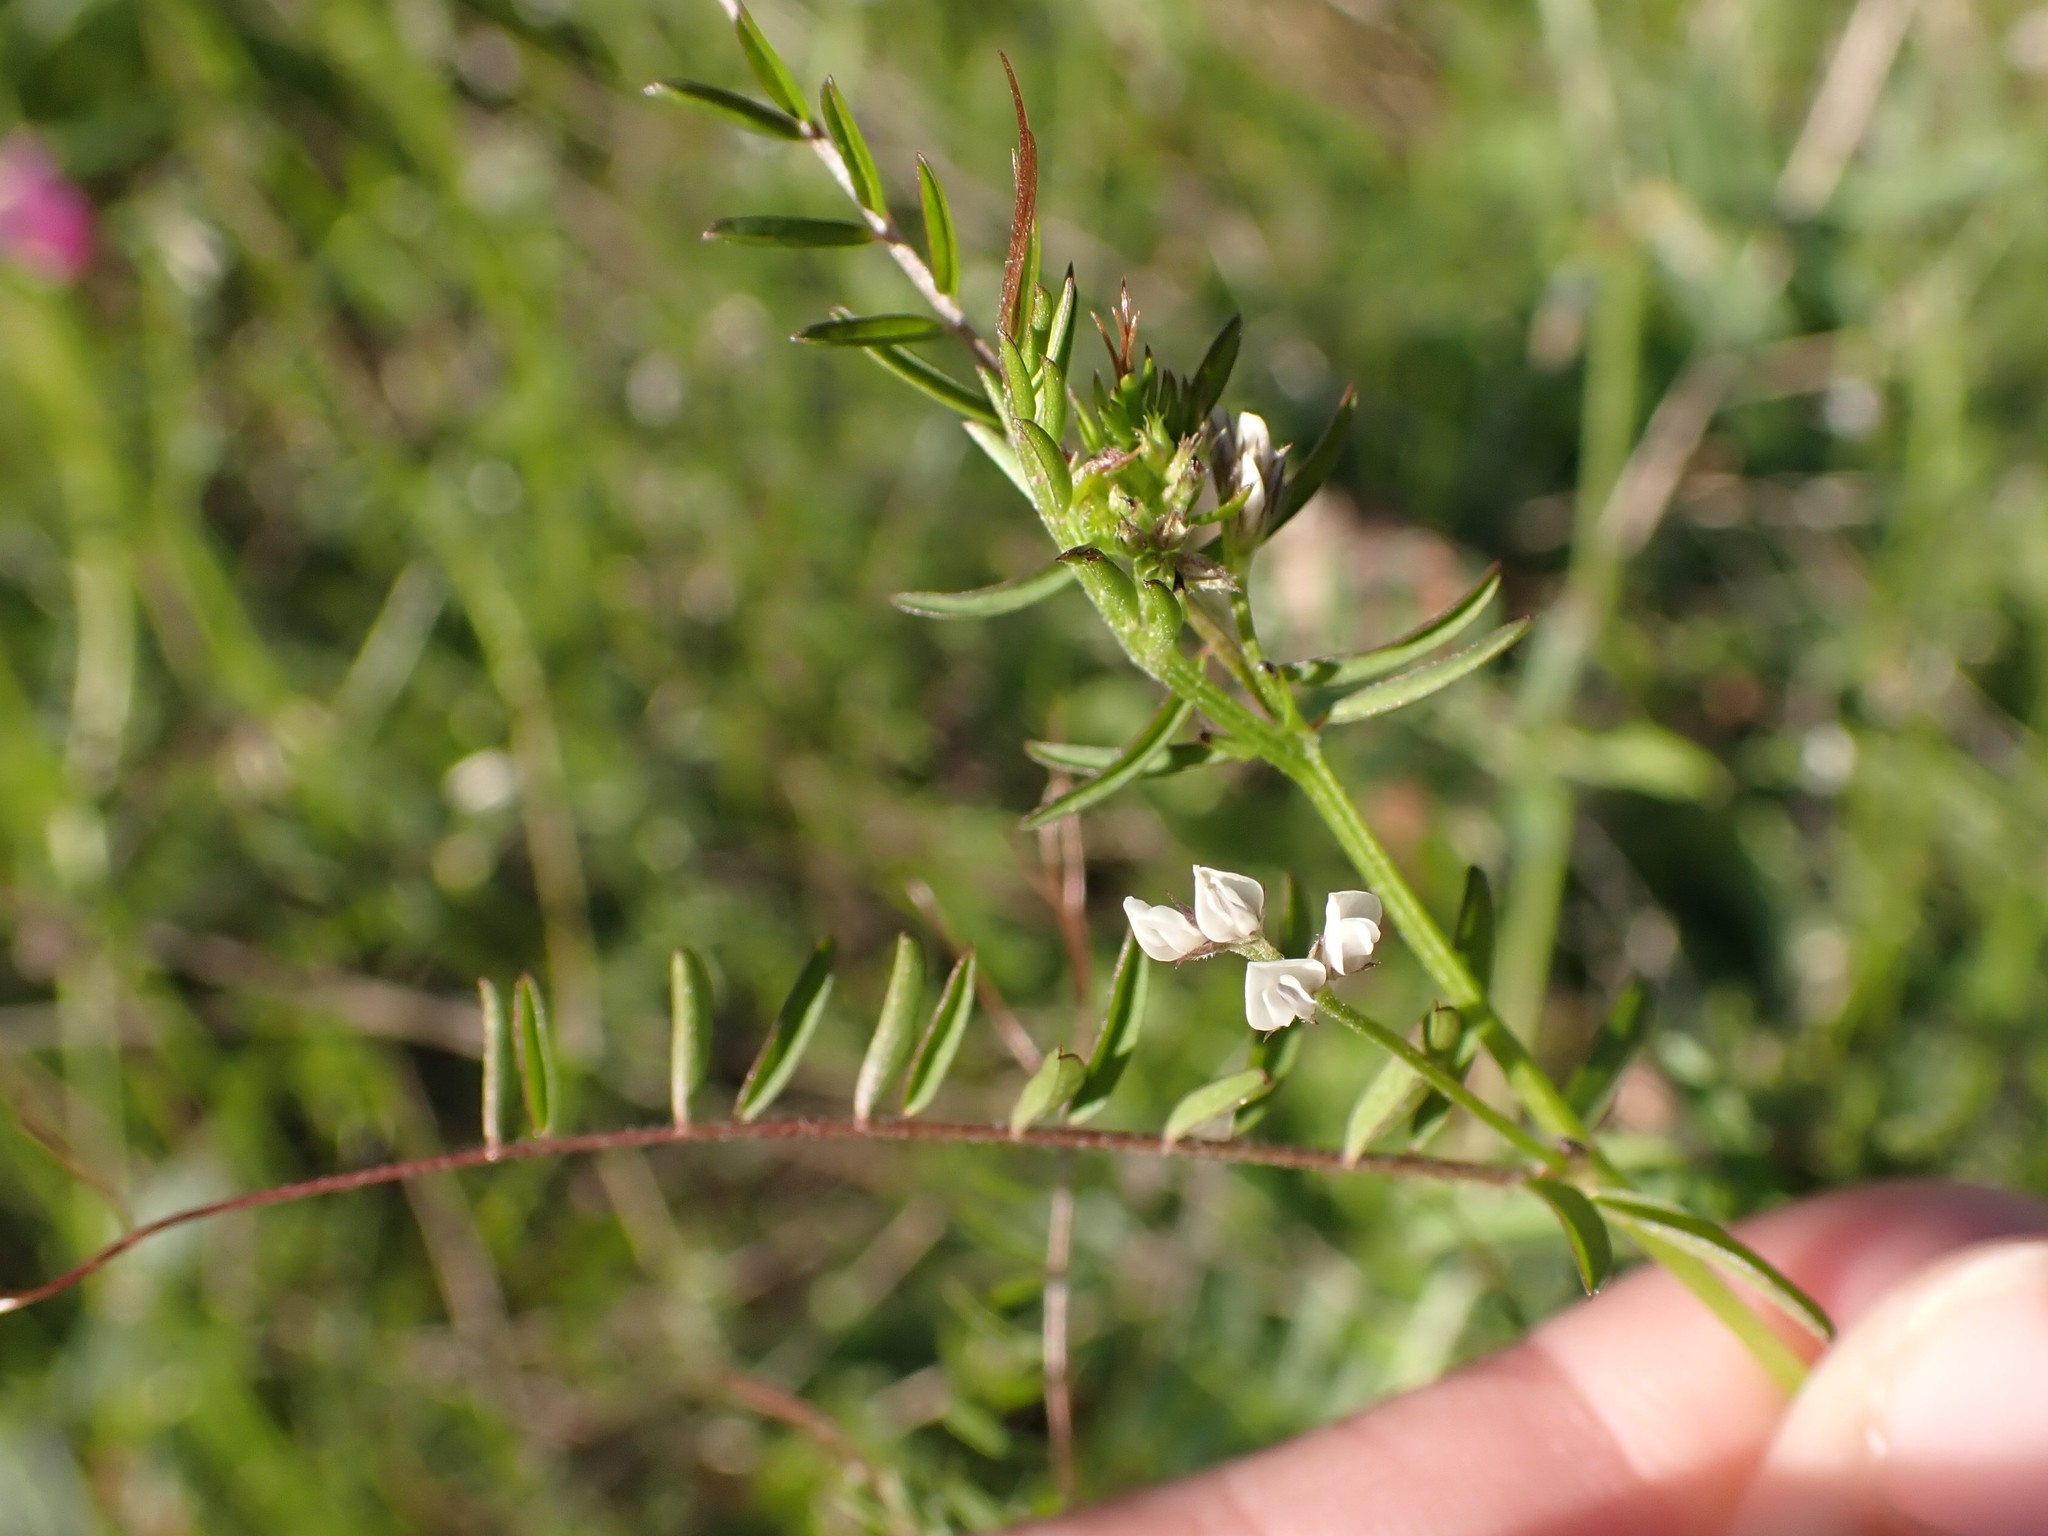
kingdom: Plantae
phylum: Tracheophyta
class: Magnoliopsida
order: Fabales
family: Fabaceae
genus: Vicia
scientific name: Vicia hirsuta
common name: Tiny vetch
